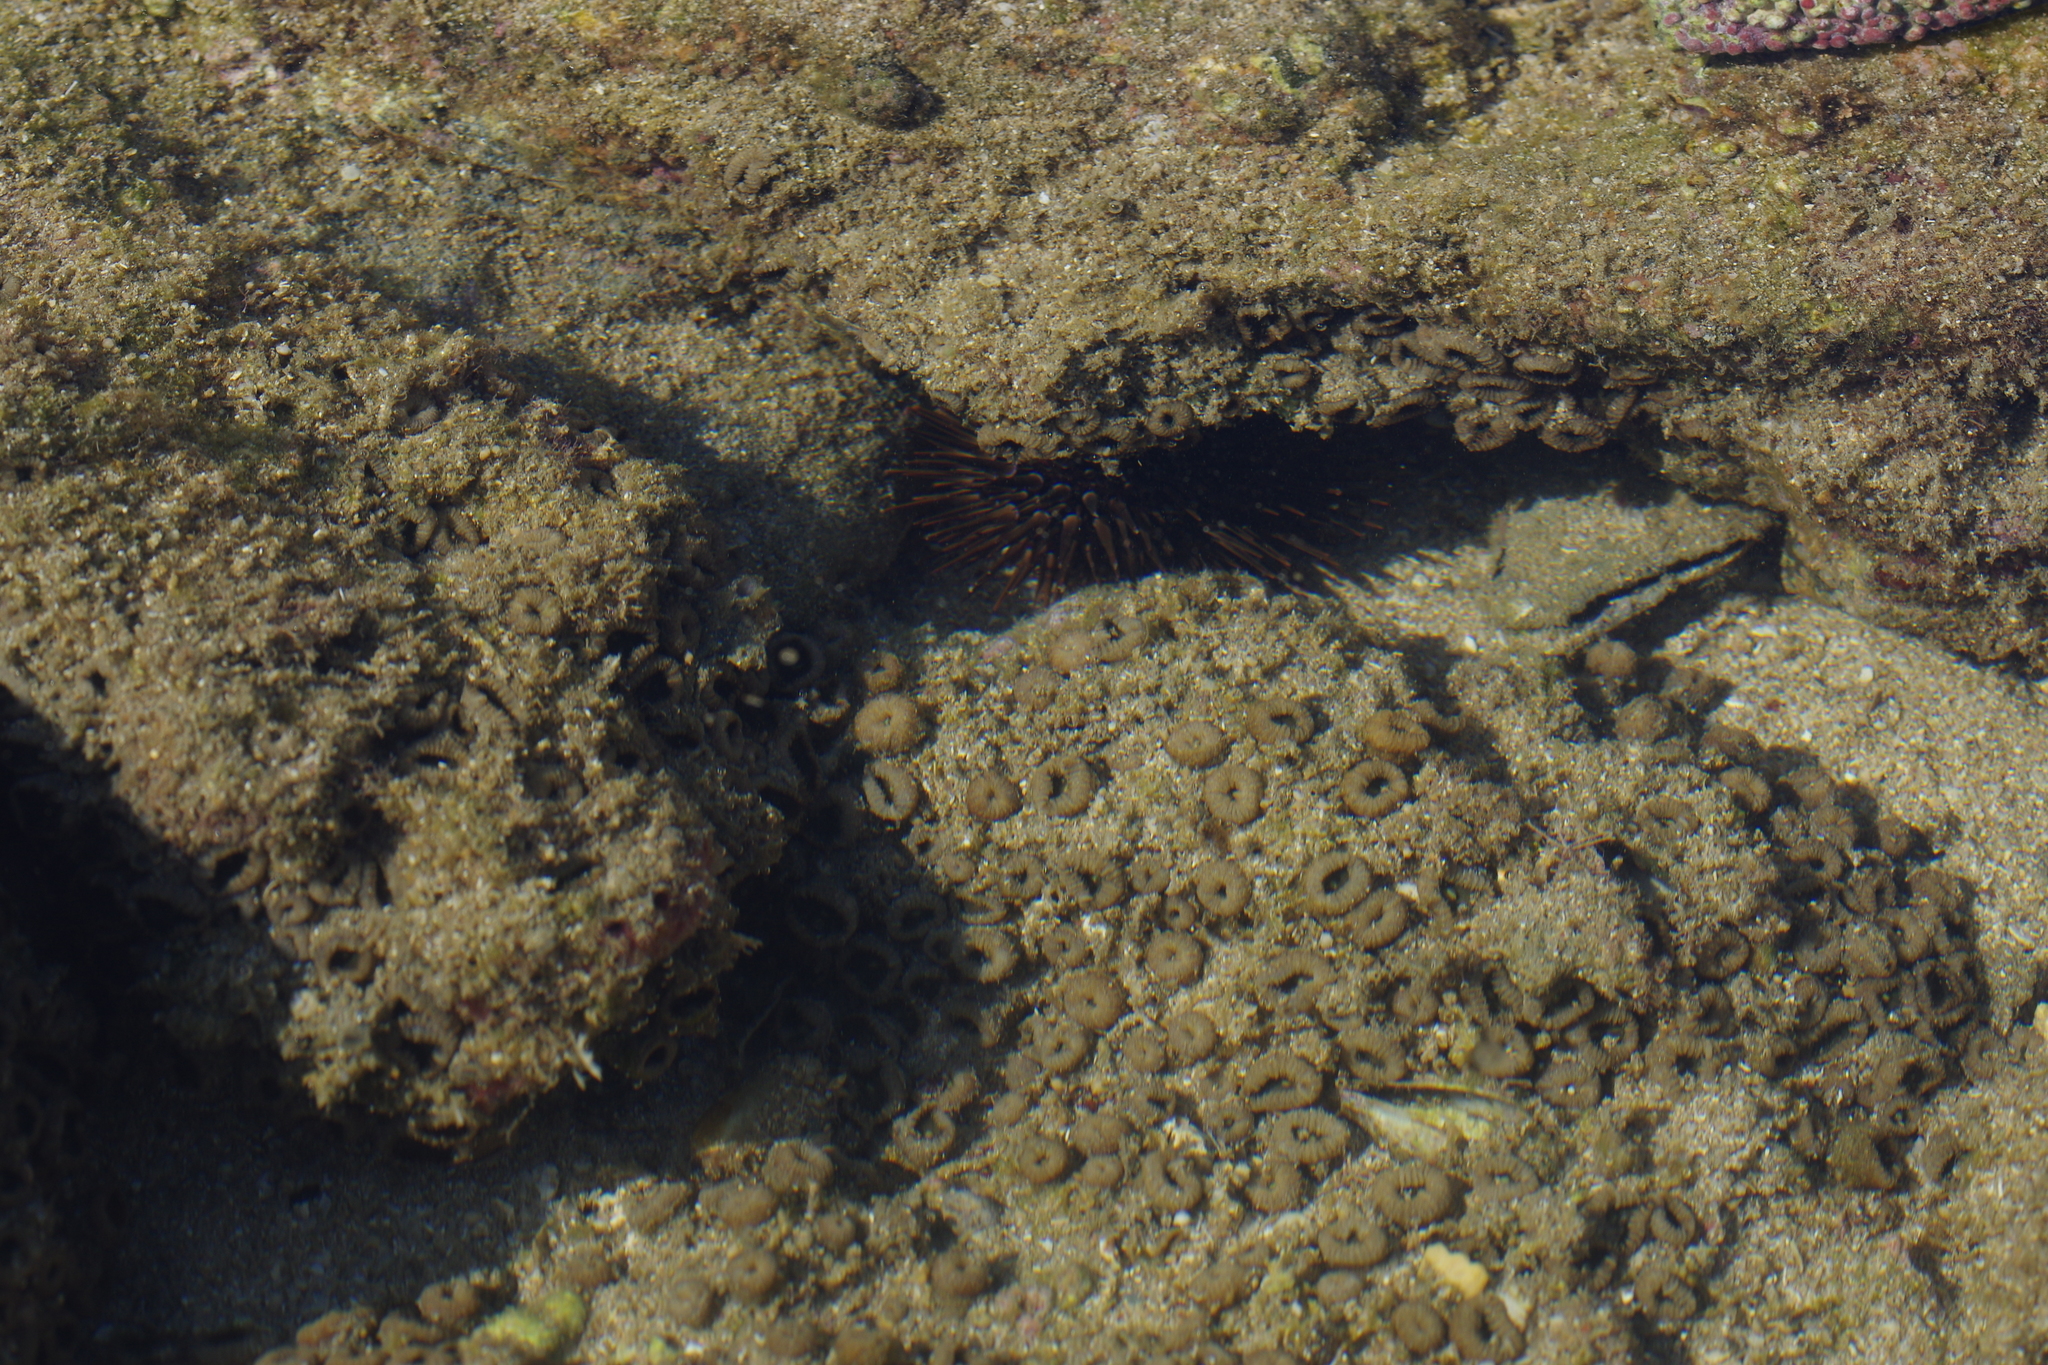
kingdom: Animalia
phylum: Echinodermata
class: Echinoidea
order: Camarodonta
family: Echinometridae
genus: Echinometra
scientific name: Echinometra mathaei
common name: Rock-boring urchin
